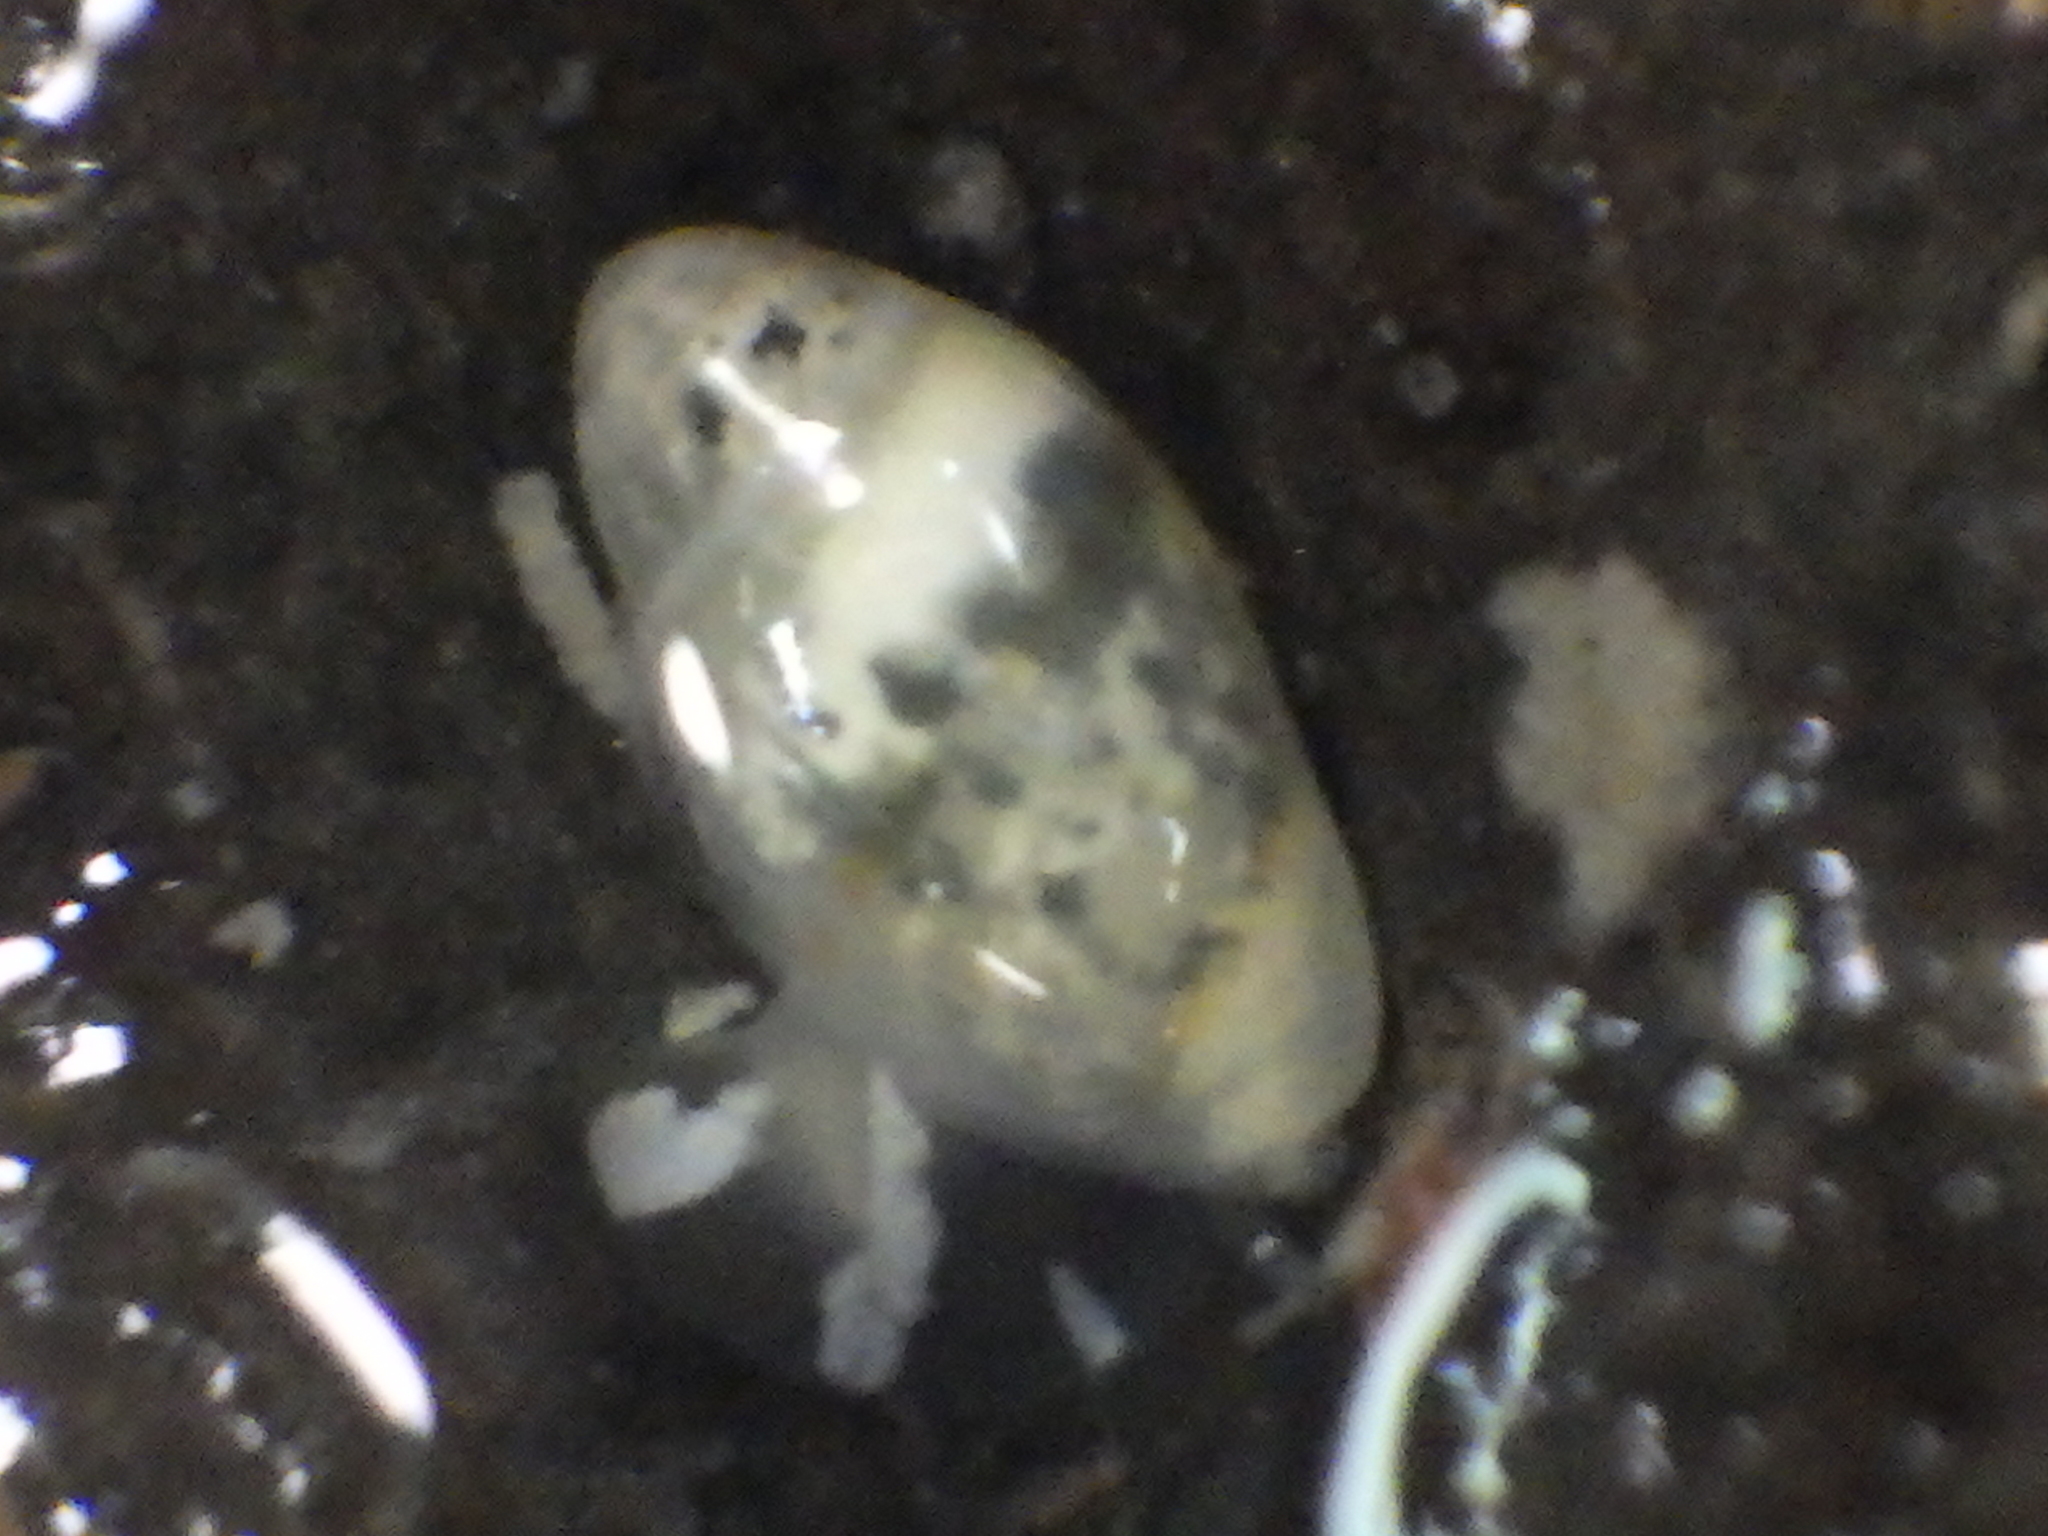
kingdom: Animalia
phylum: Mollusca
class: Gastropoda
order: Neogastropoda
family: Marginellidae
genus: Dentimargo
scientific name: Dentimargo cairoma
